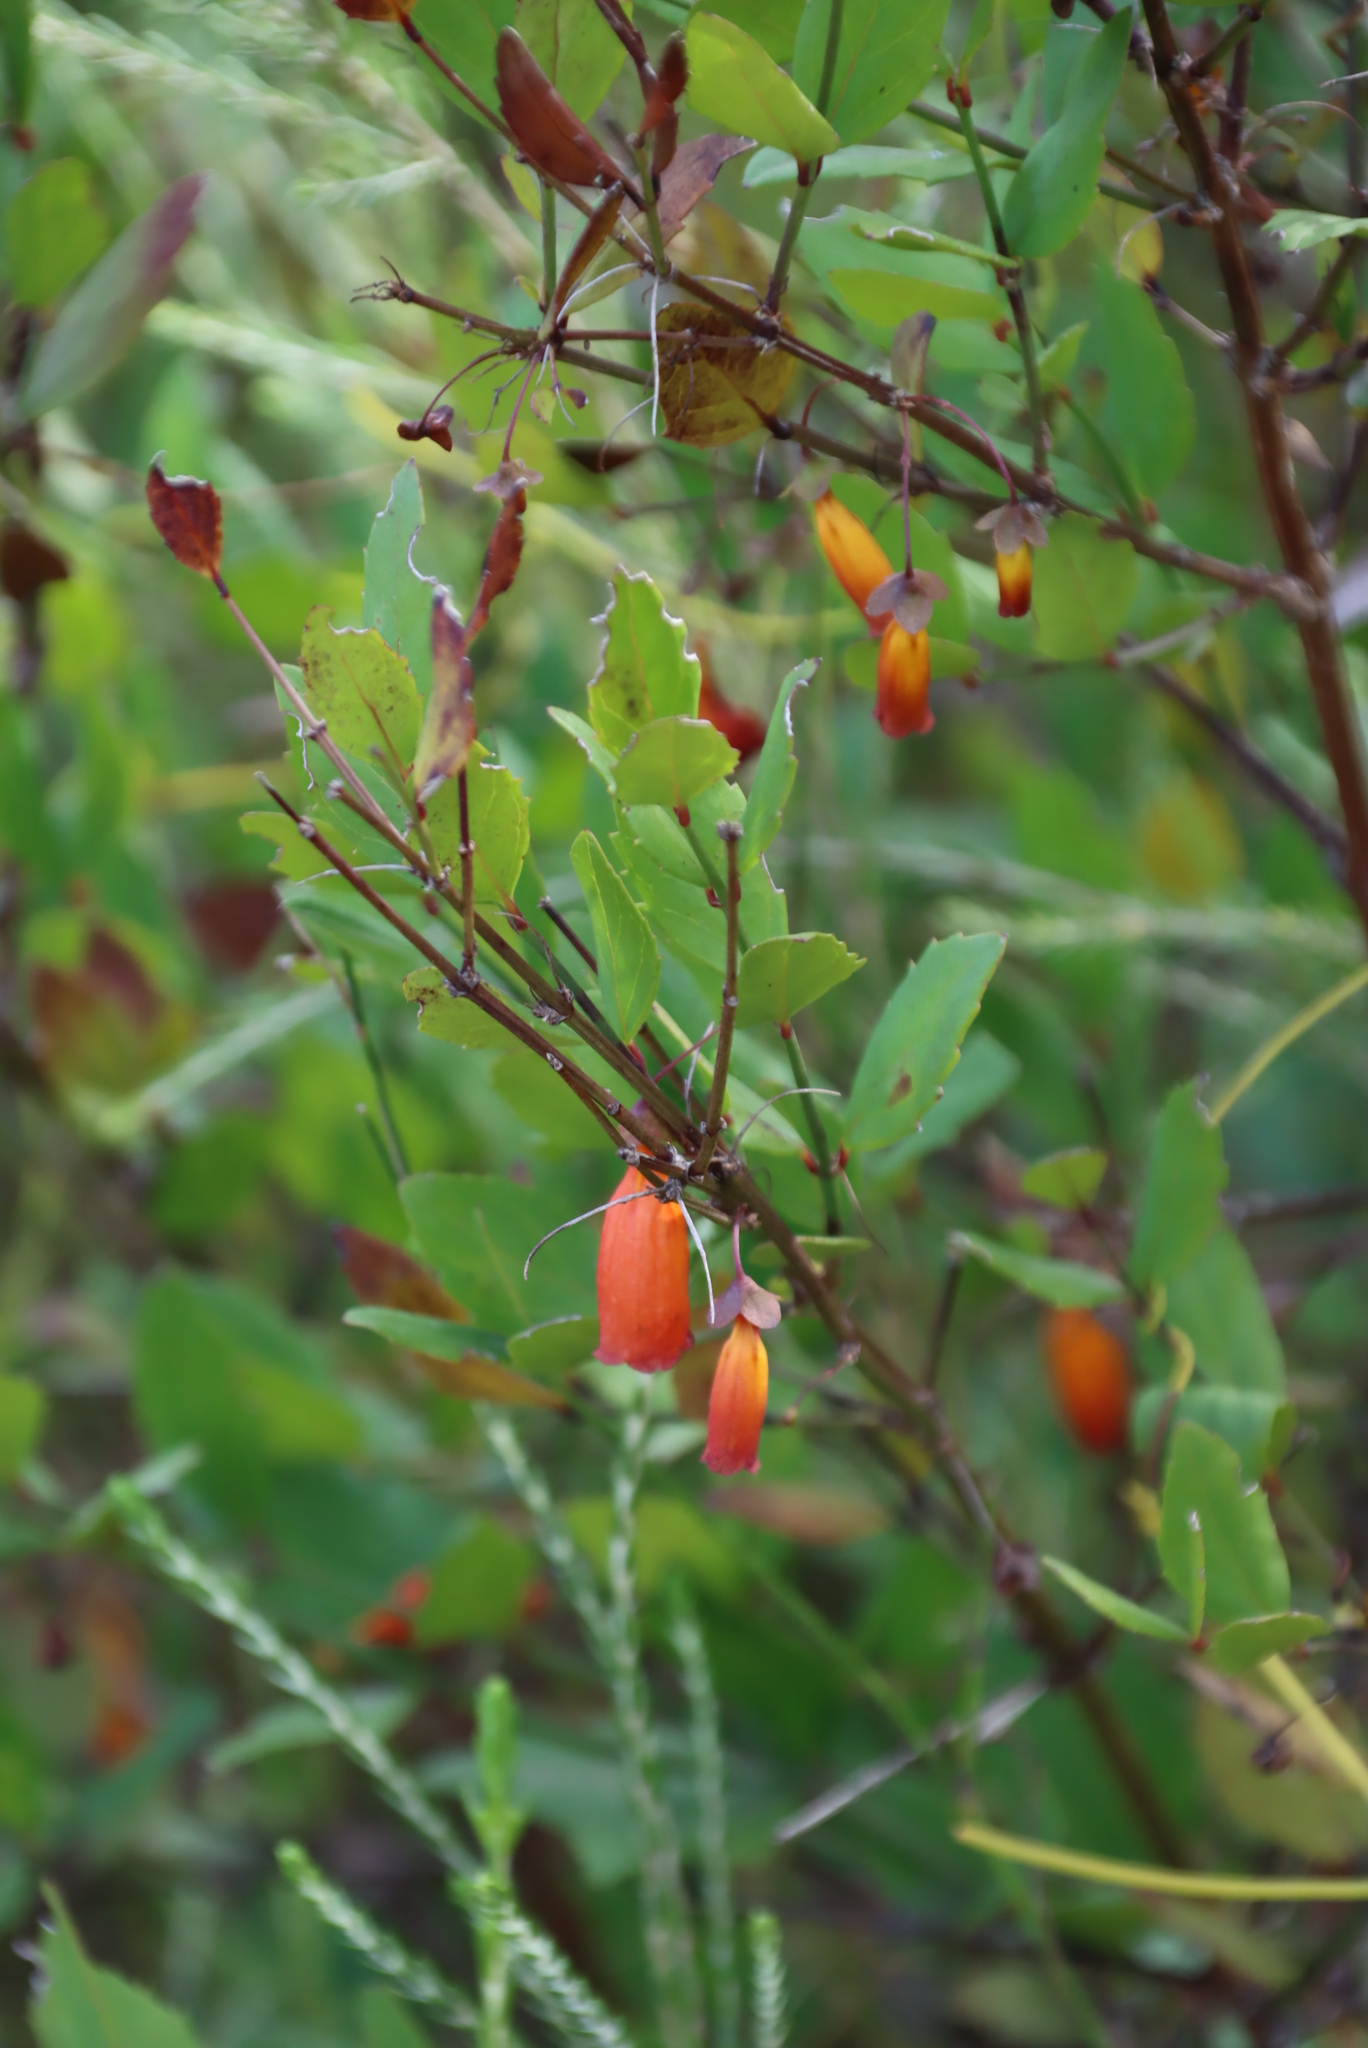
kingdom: Plantae
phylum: Tracheophyta
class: Magnoliopsida
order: Lamiales
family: Stilbaceae
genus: Halleria
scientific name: Halleria elliptica
